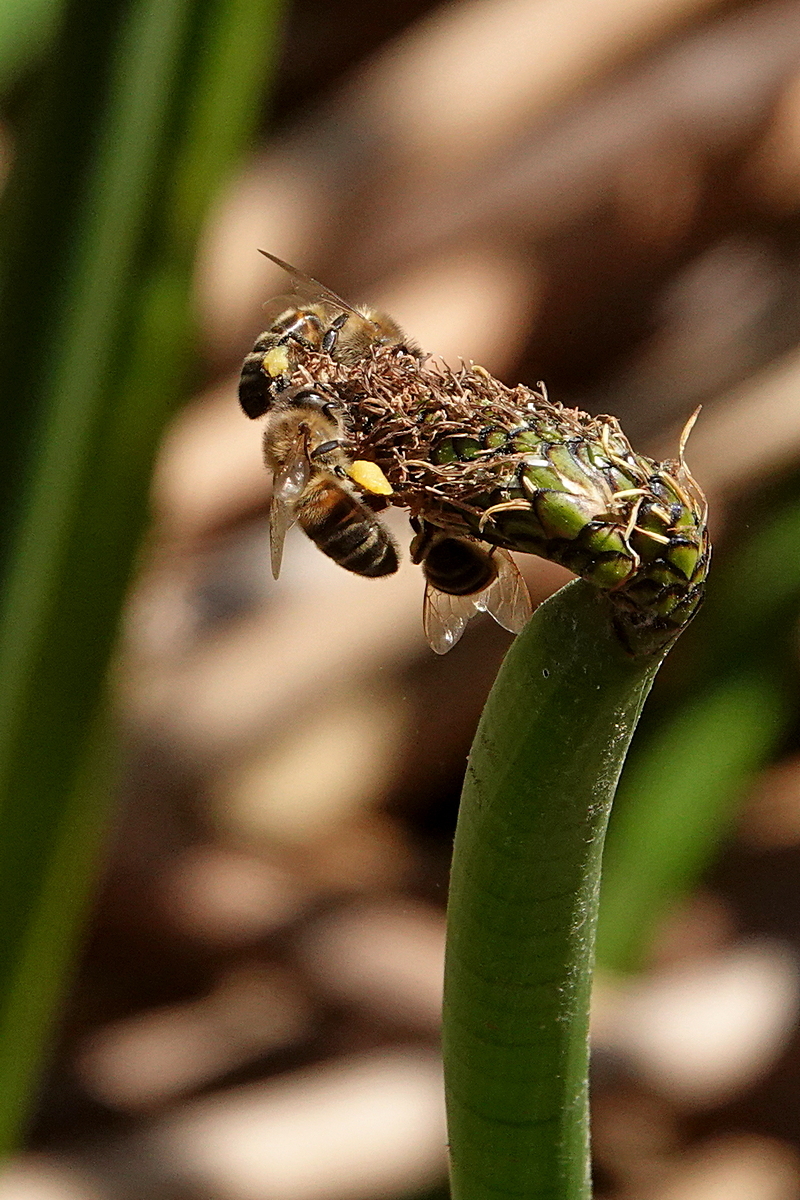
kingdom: Animalia
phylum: Arthropoda
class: Insecta
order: Hymenoptera
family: Apidae
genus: Apis
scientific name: Apis mellifera
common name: Honey bee
